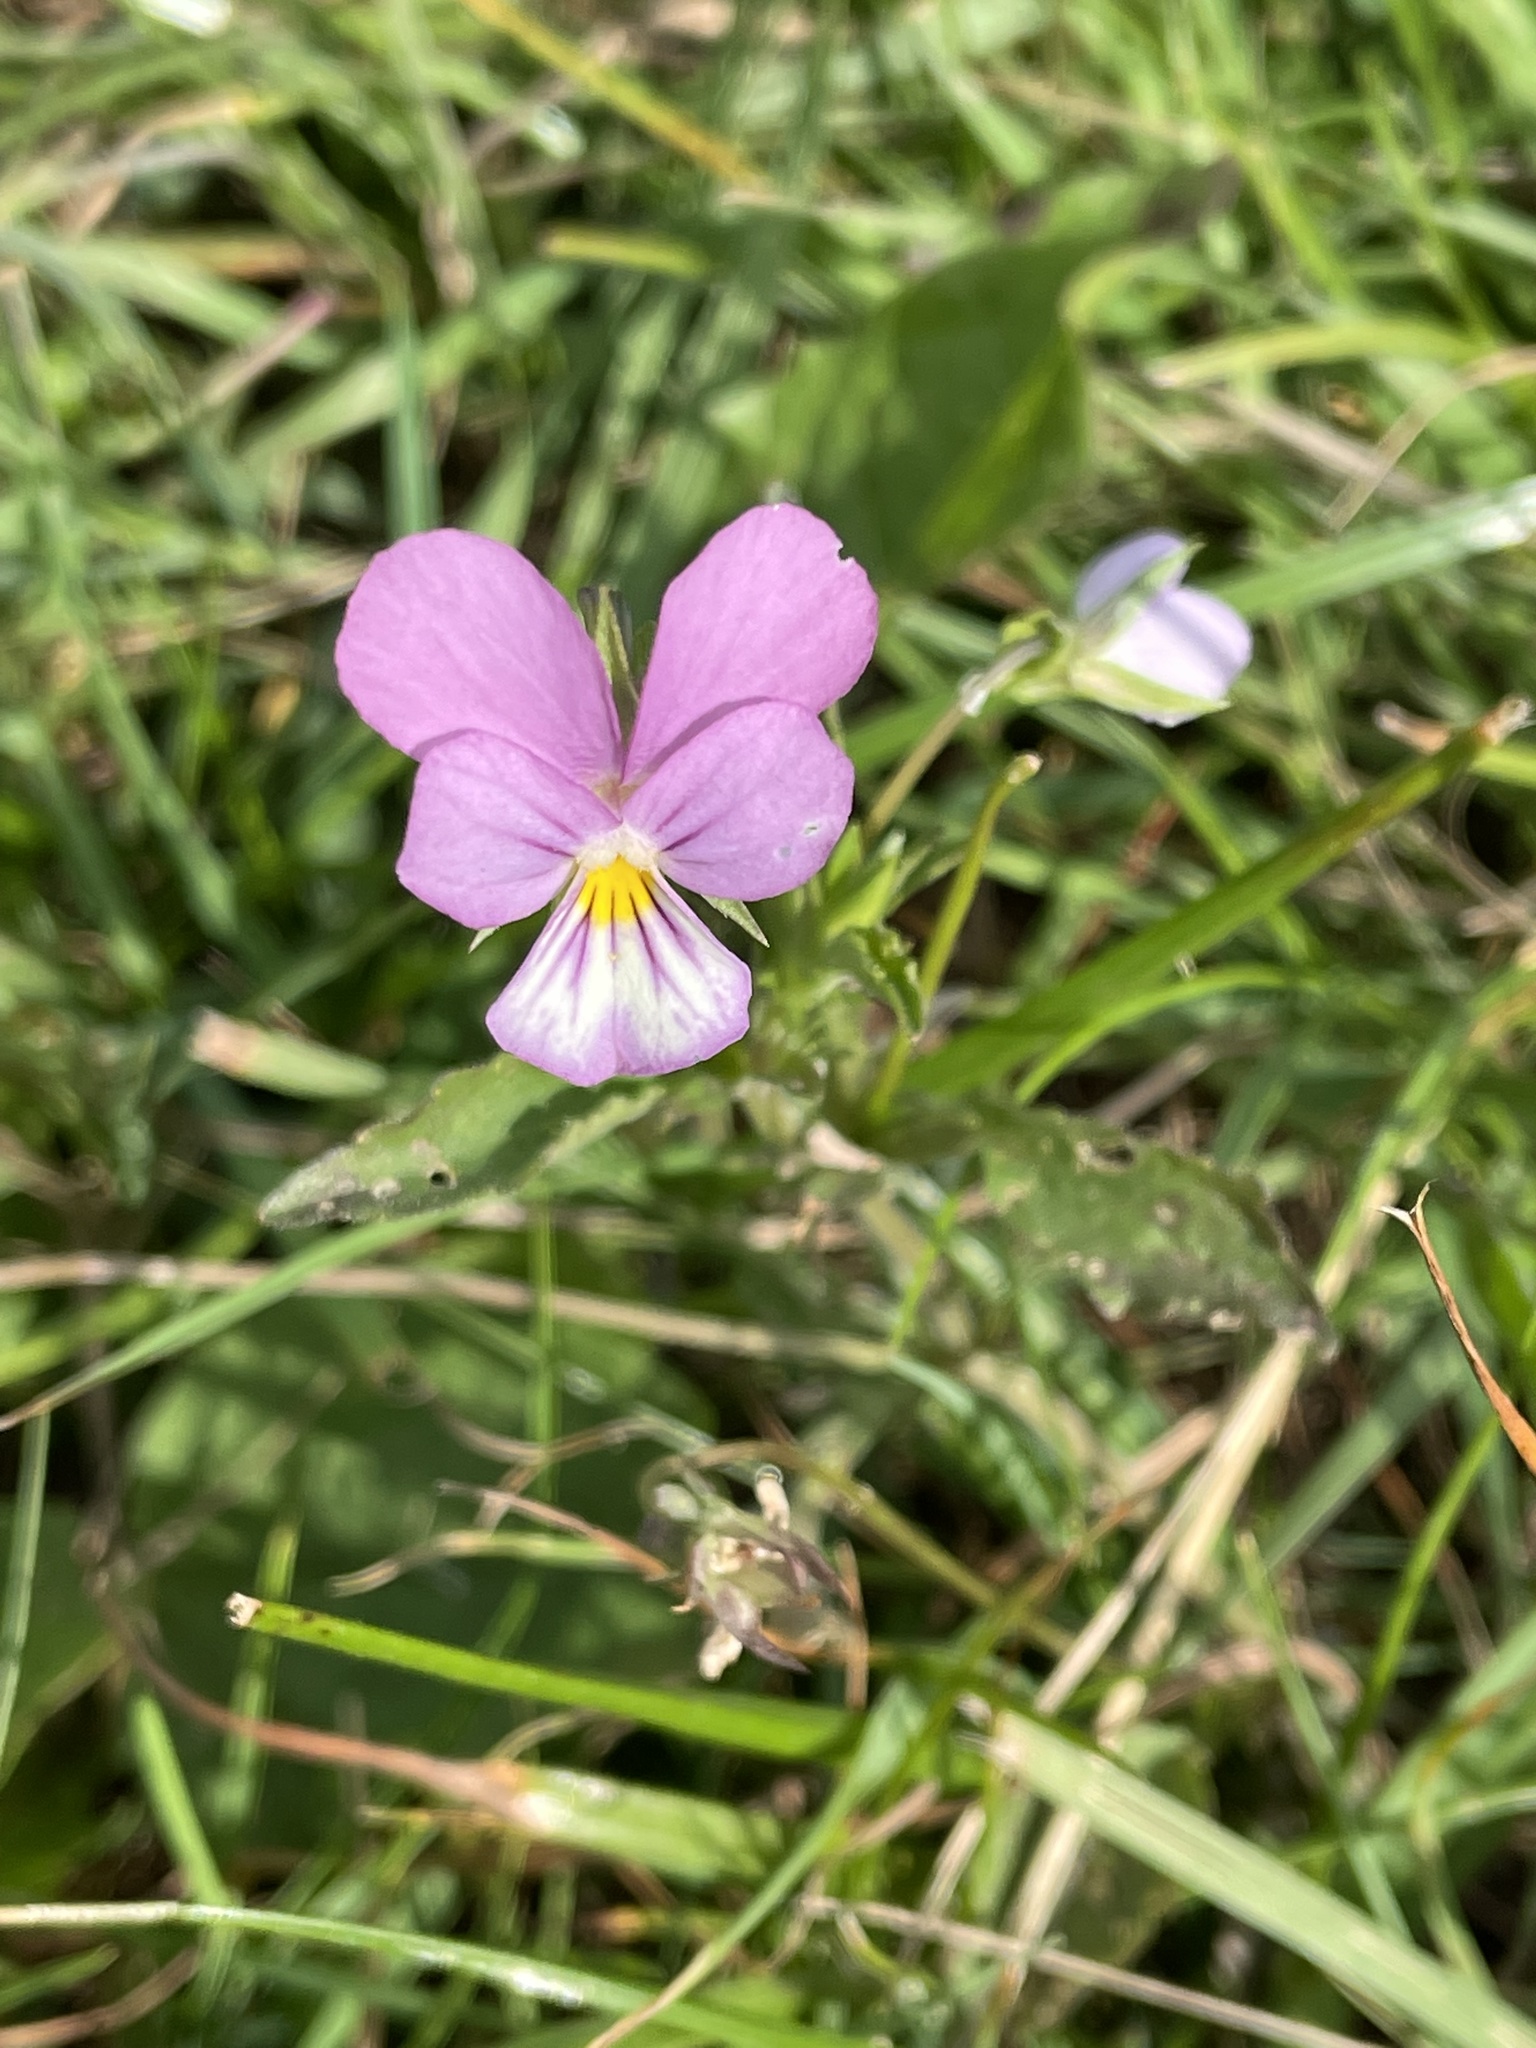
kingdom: Plantae
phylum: Tracheophyta
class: Magnoliopsida
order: Malpighiales
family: Violaceae
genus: Viola
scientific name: Viola tricolor
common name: Pansy
